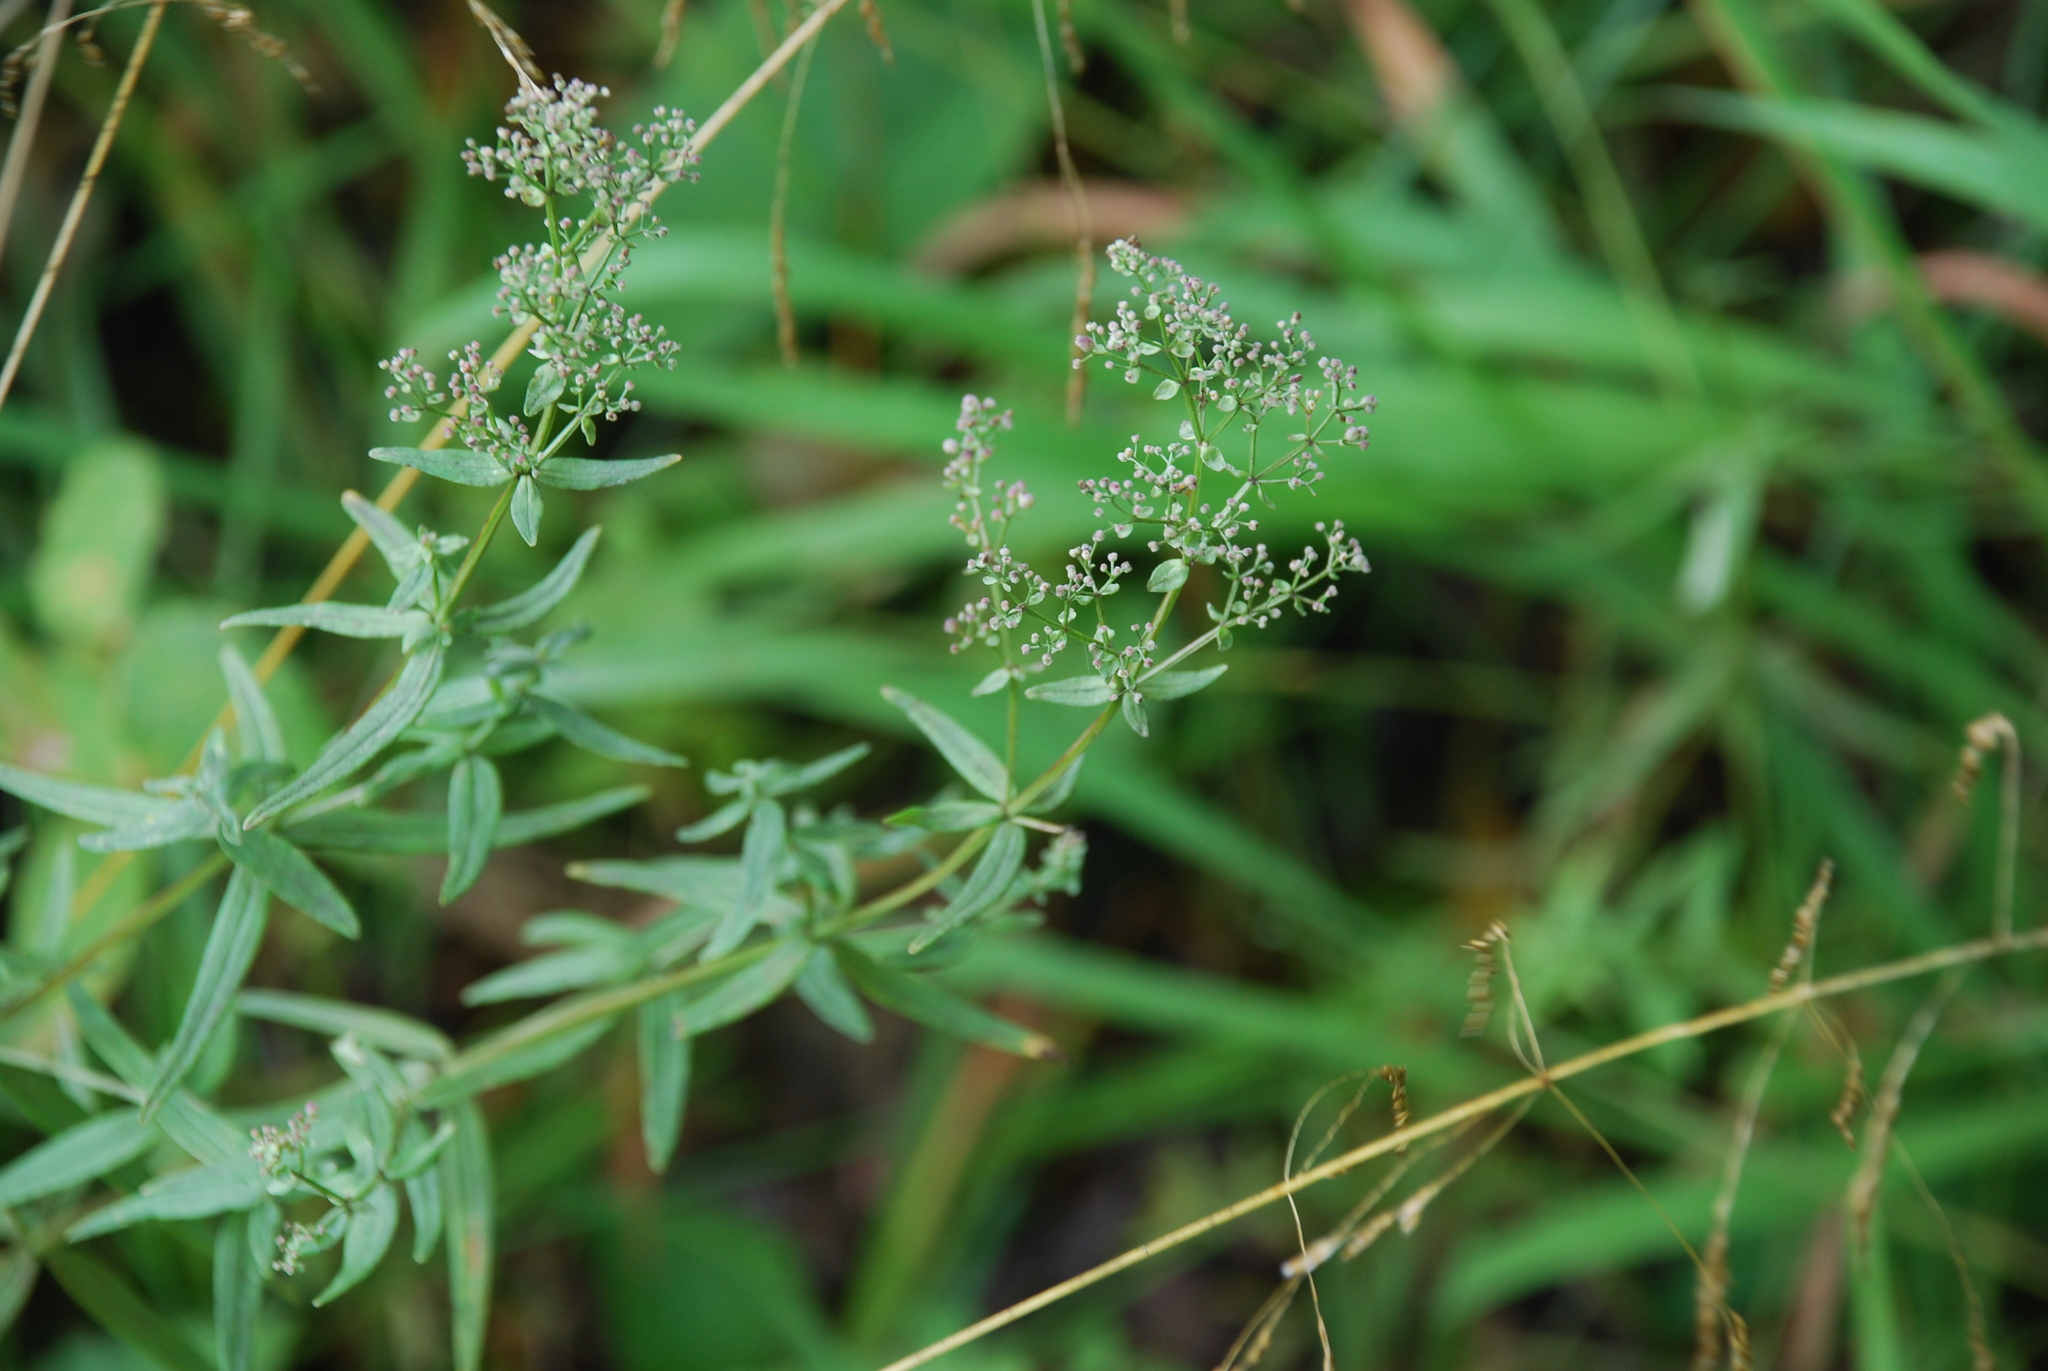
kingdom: Plantae
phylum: Tracheophyta
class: Magnoliopsida
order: Gentianales
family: Rubiaceae
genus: Galium
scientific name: Galium boreale
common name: Northern bedstraw
